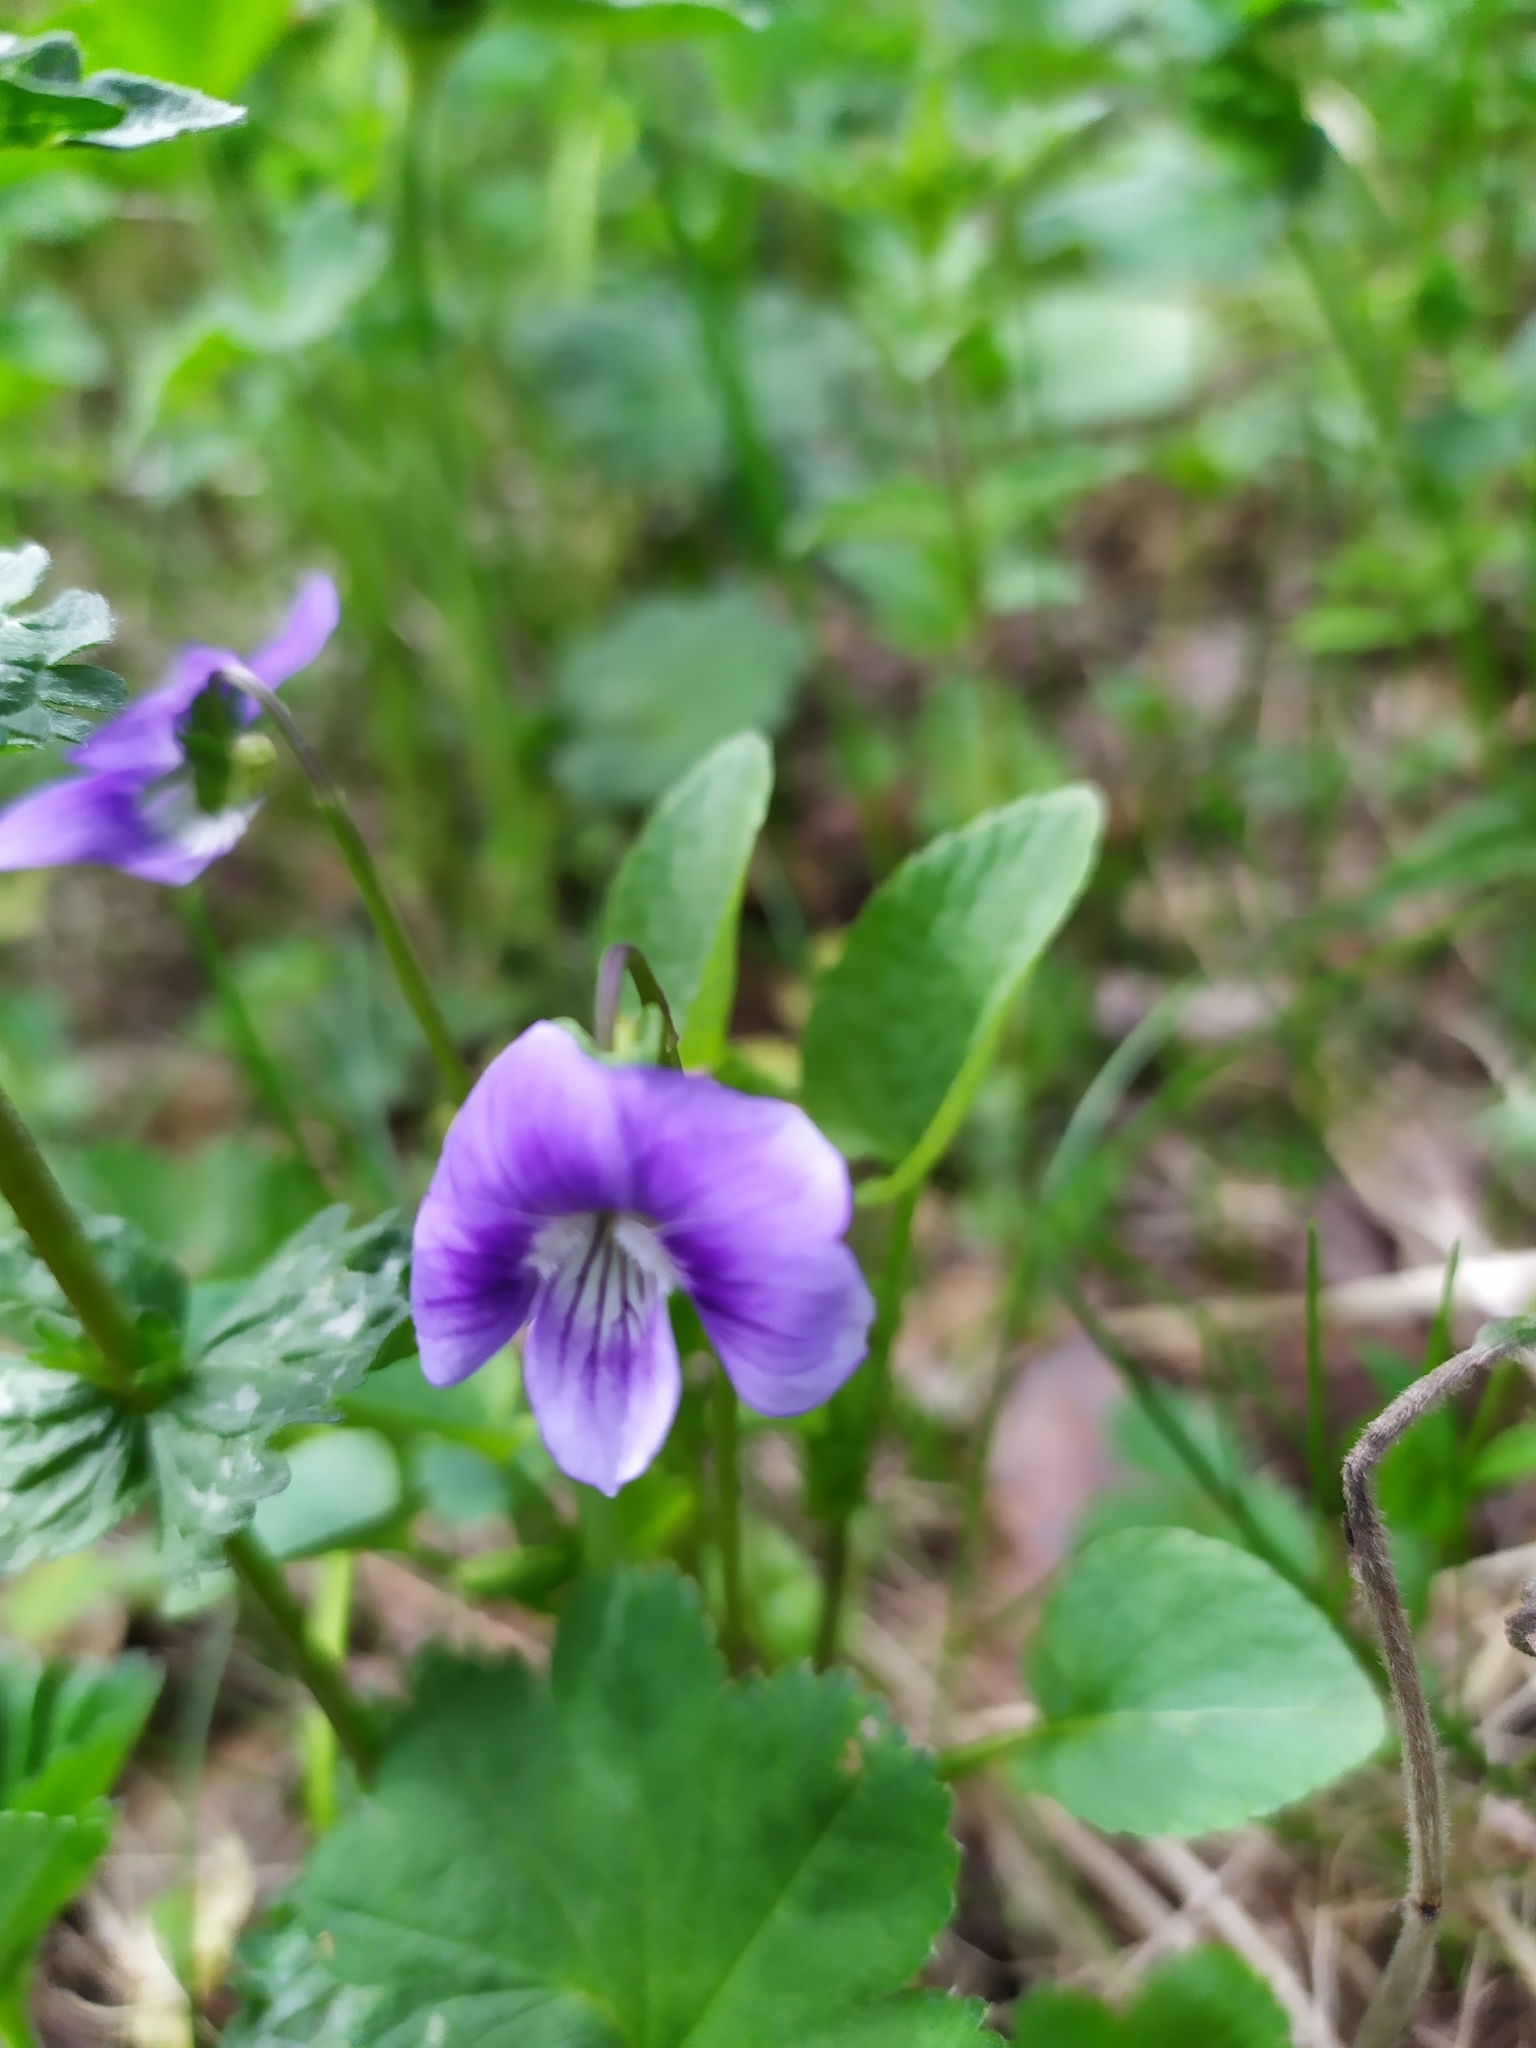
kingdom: Plantae
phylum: Tracheophyta
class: Magnoliopsida
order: Malpighiales
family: Violaceae
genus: Viola
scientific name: Viola canina
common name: Heath dog-violet
